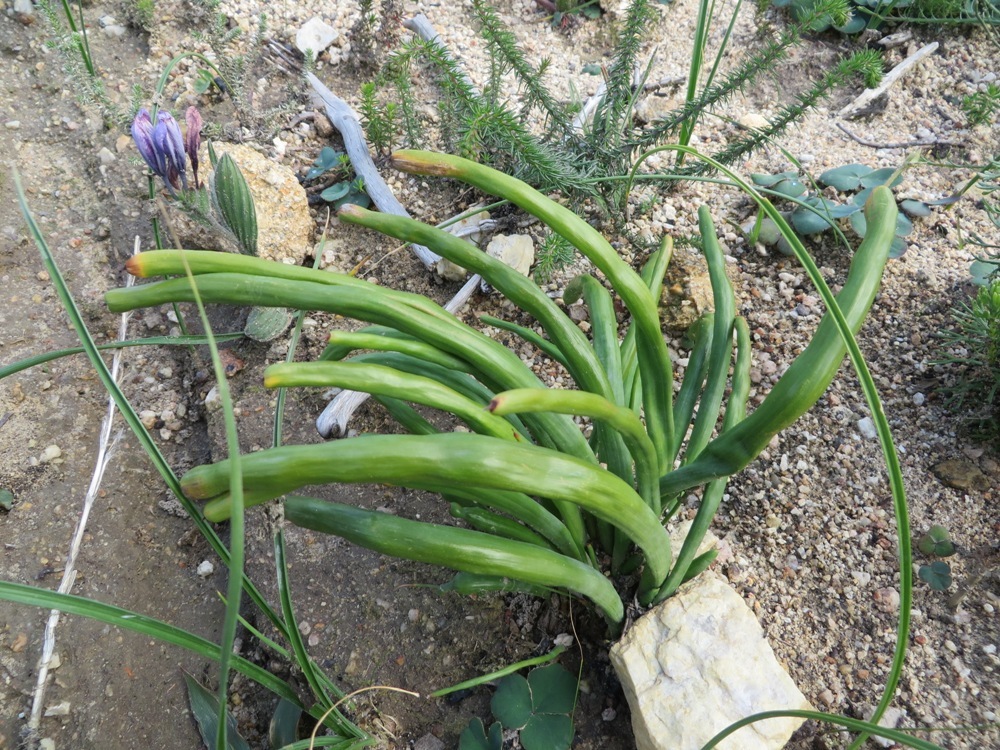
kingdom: Plantae
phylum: Tracheophyta
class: Liliopsida
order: Asparagales
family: Iridaceae
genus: Micranthus
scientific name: Micranthus tubulosus
